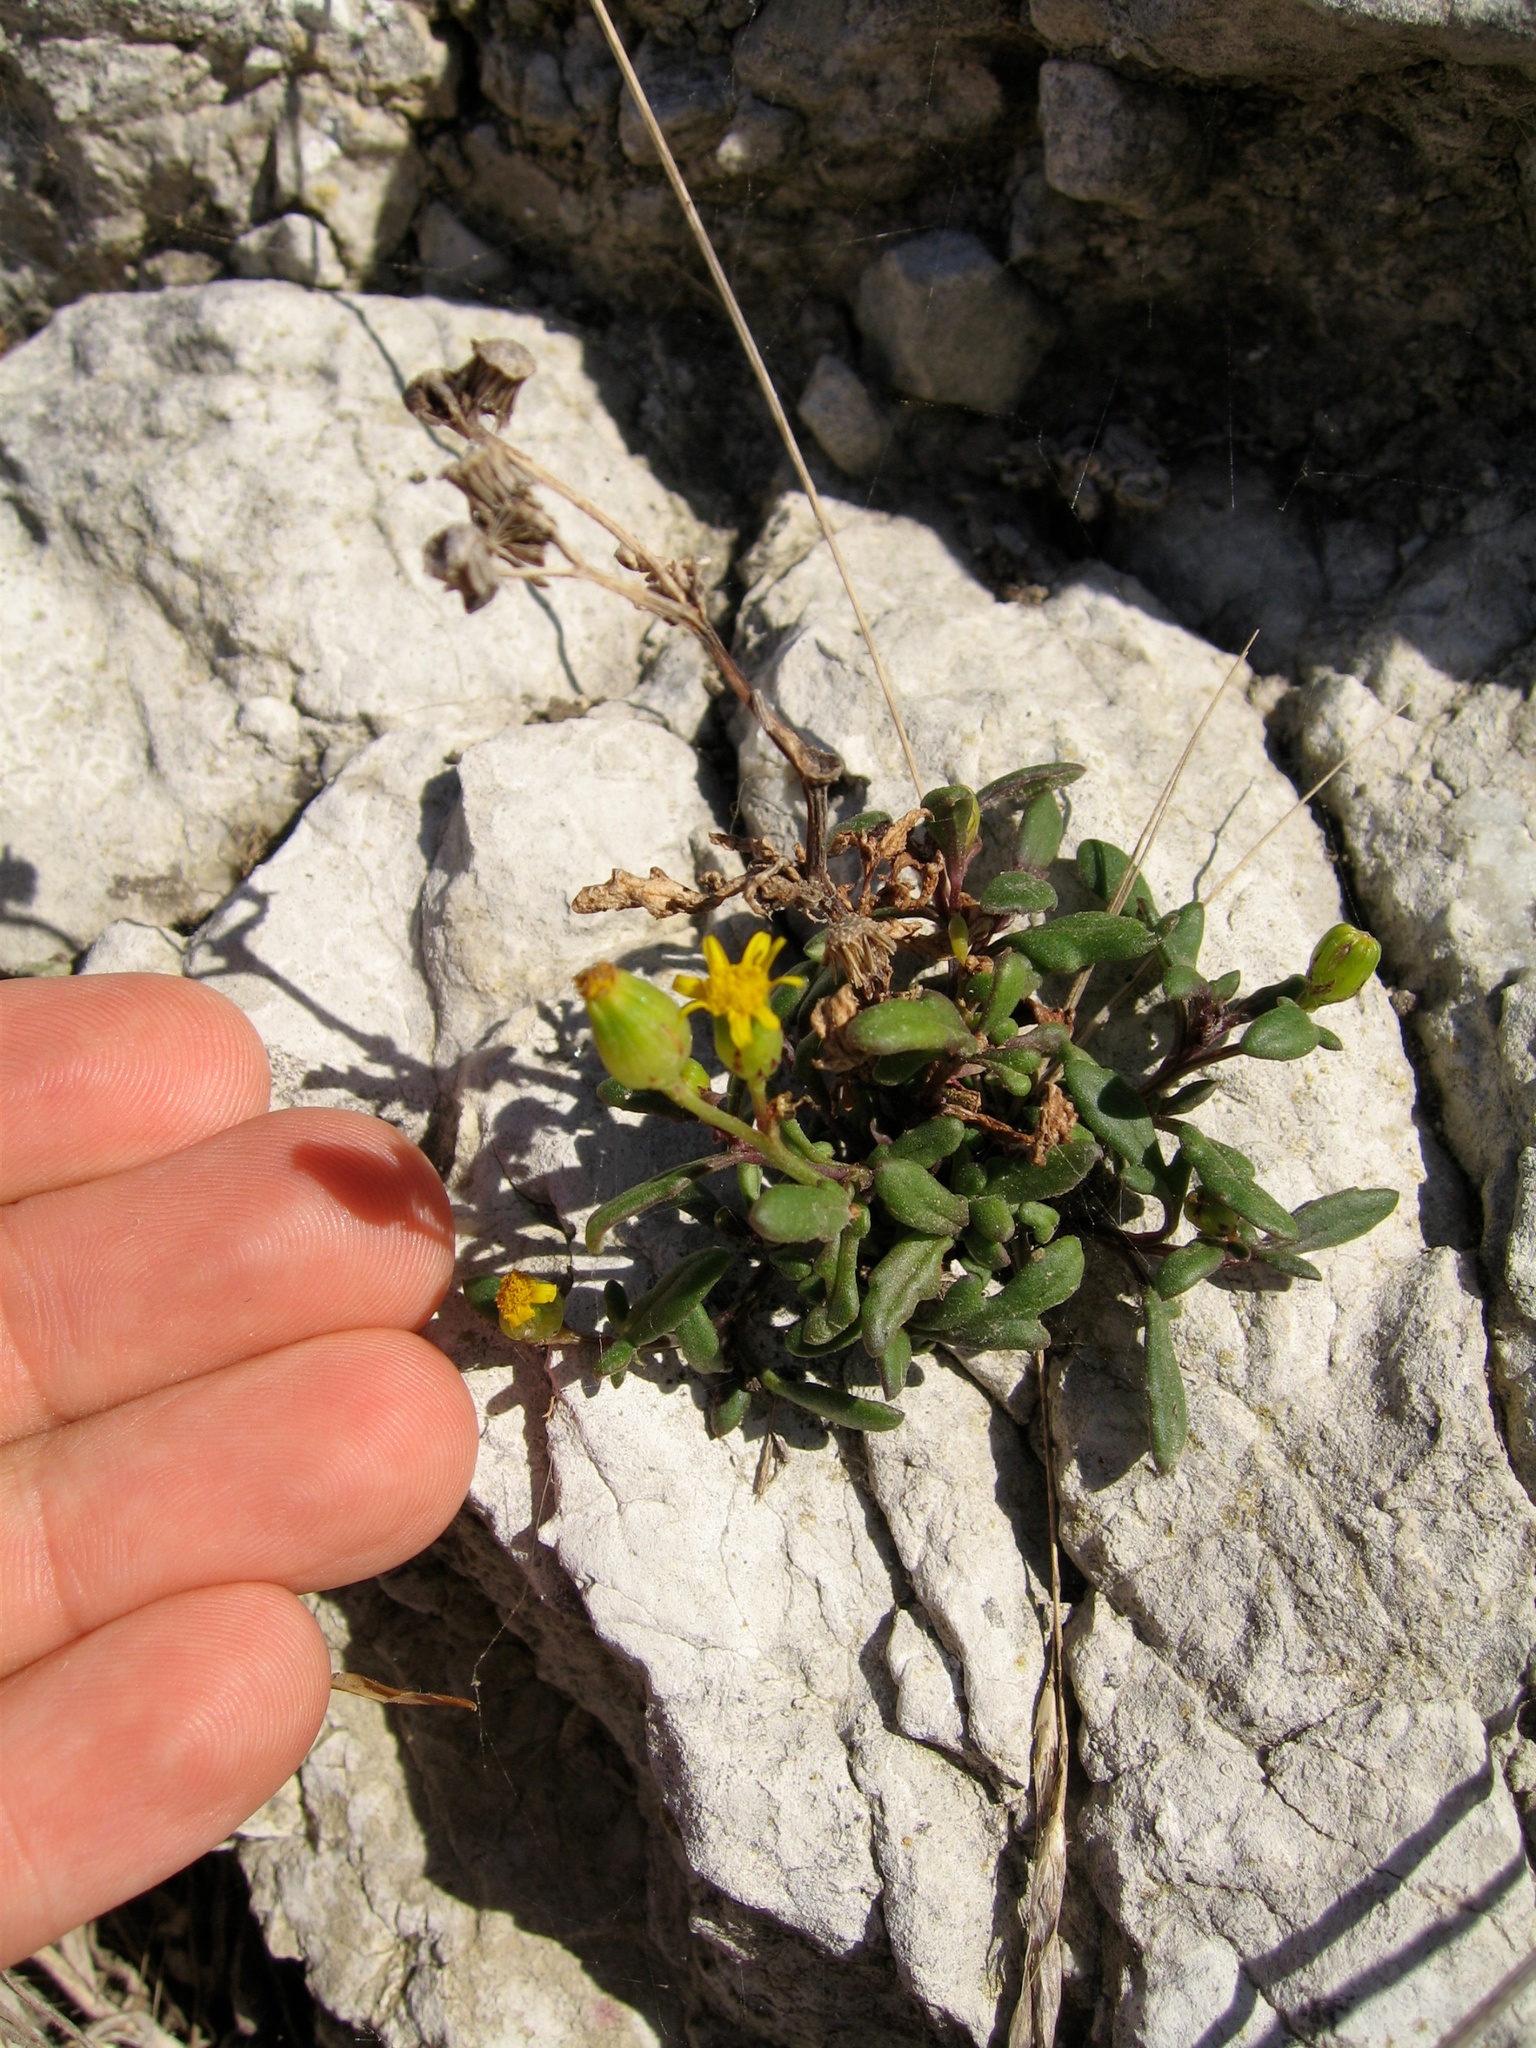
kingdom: Plantae
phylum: Tracheophyta
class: Magnoliopsida
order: Asterales
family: Asteraceae
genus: Senecio
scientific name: Senecio lautus
